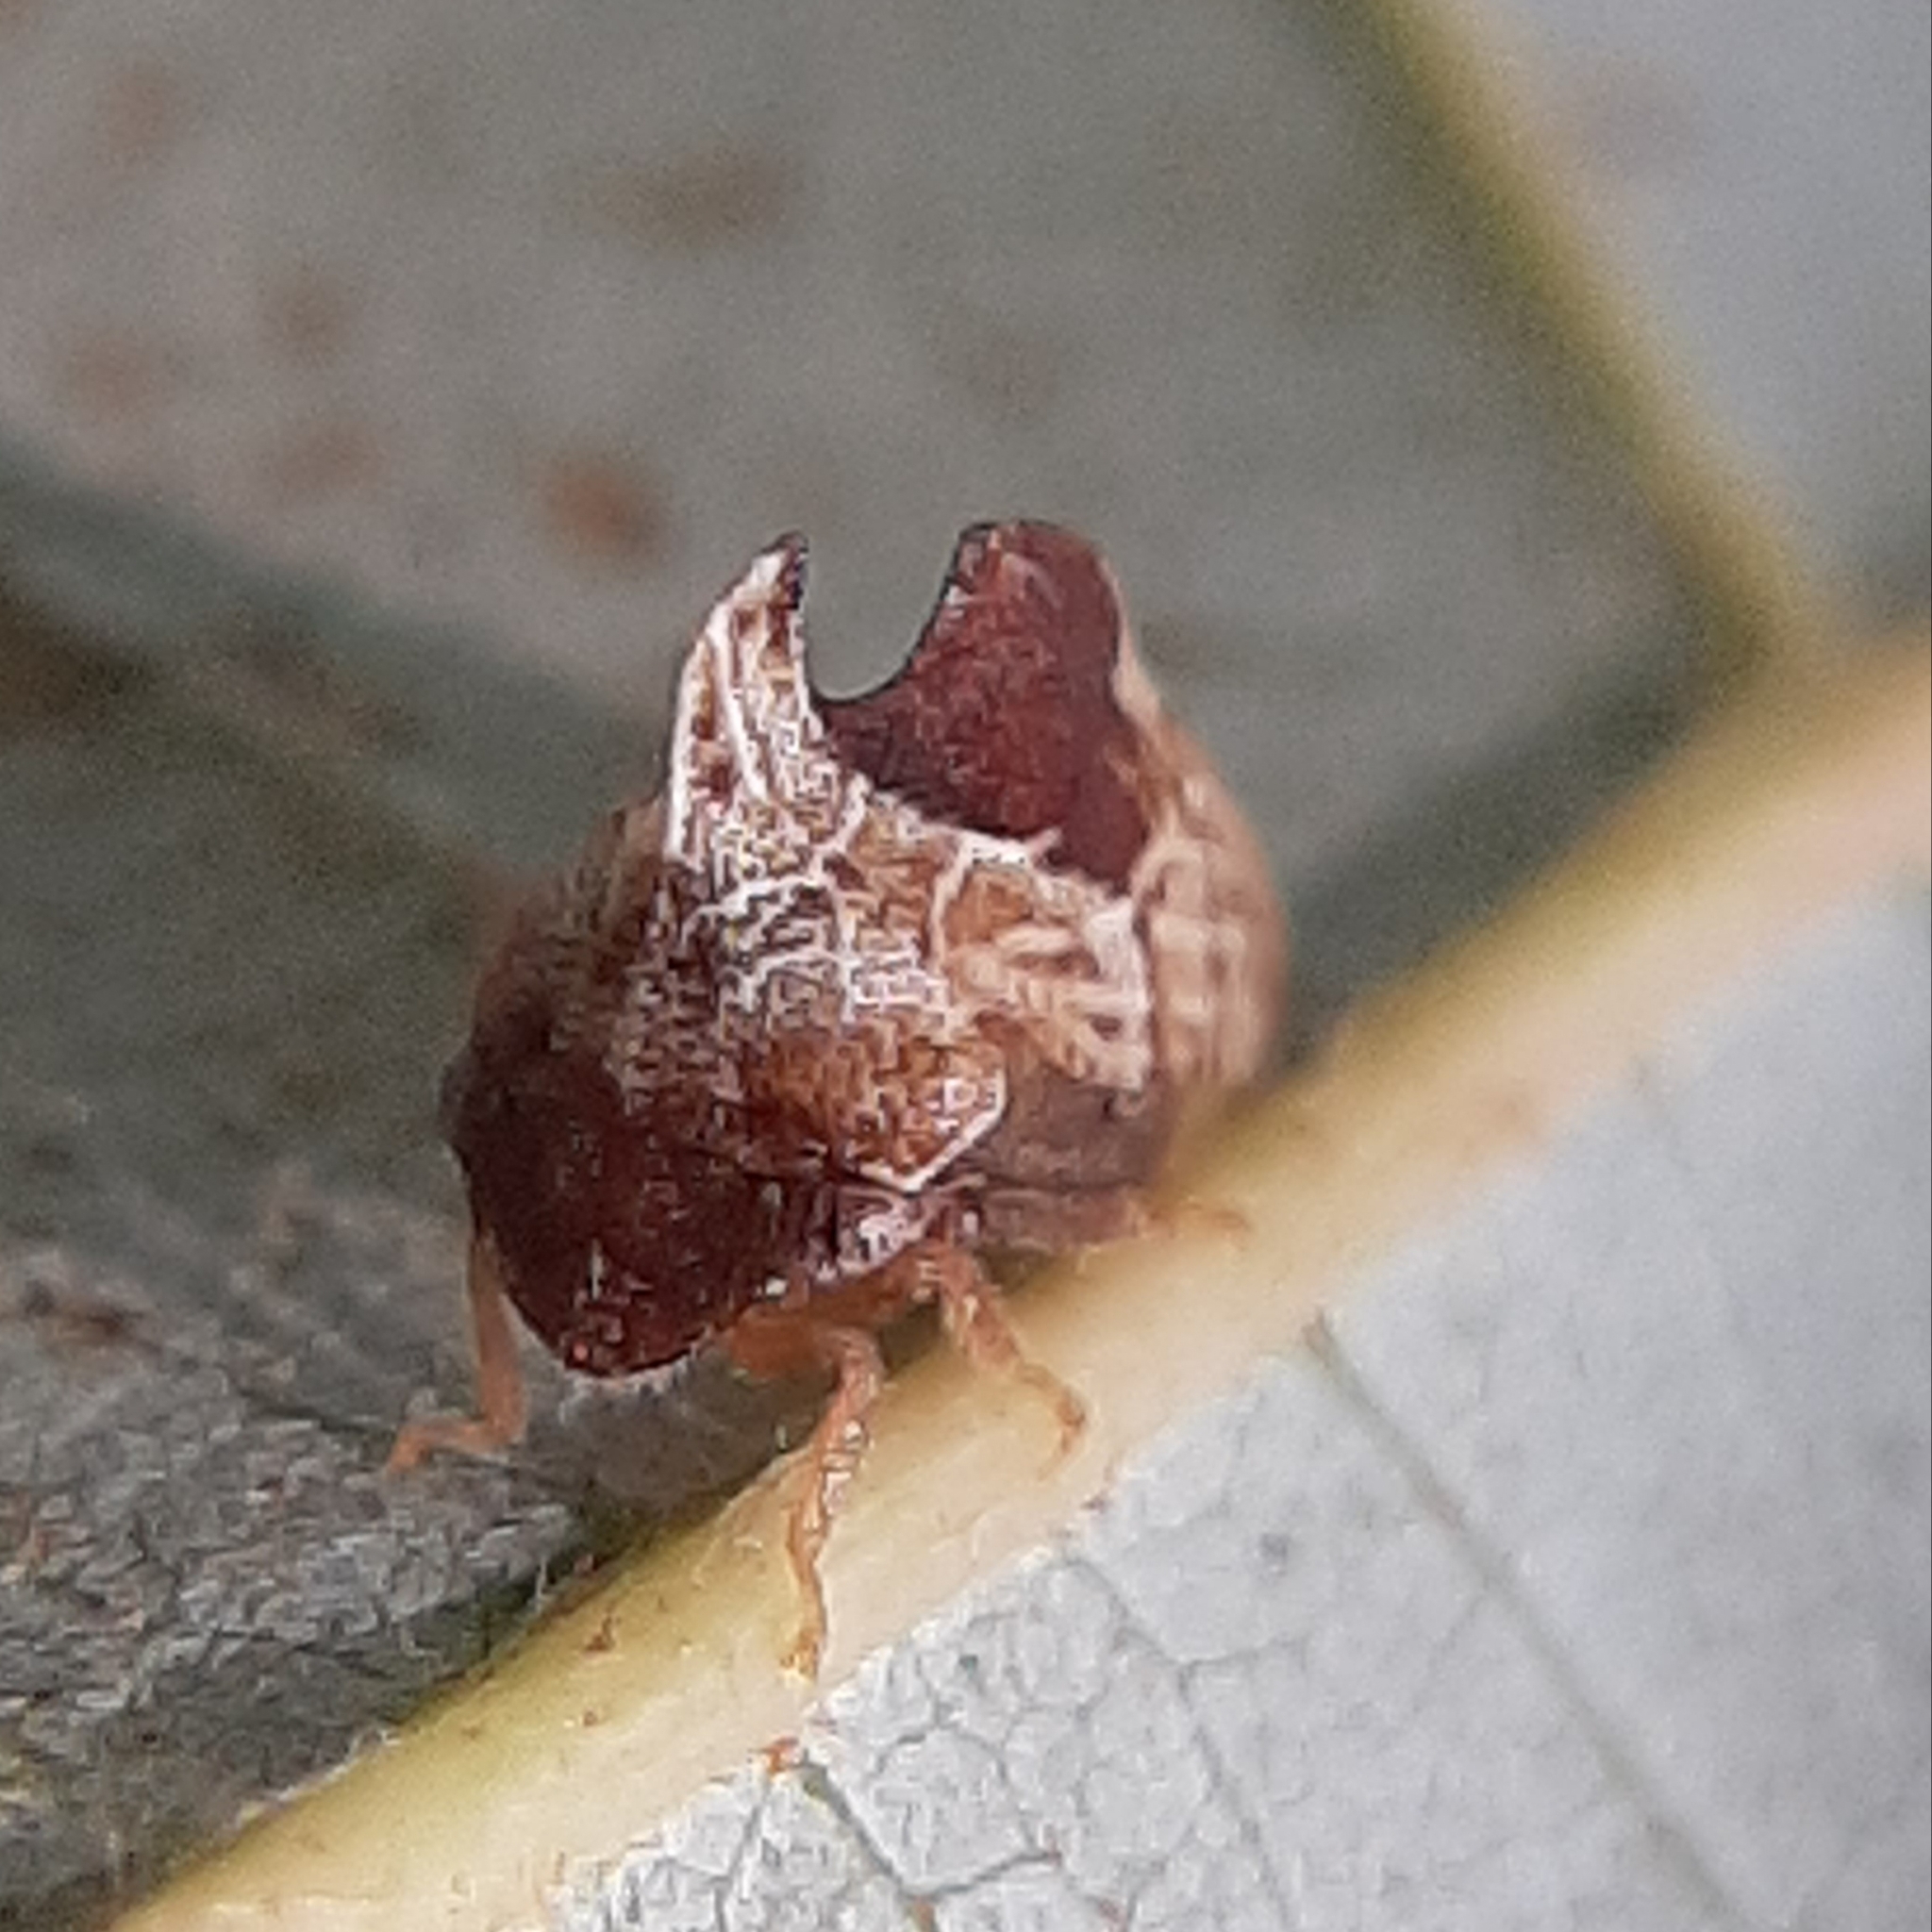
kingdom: Animalia
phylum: Arthropoda
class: Insecta
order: Hemiptera
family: Membracidae
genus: Entylia
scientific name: Entylia carinata
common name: Keeled treehopper
